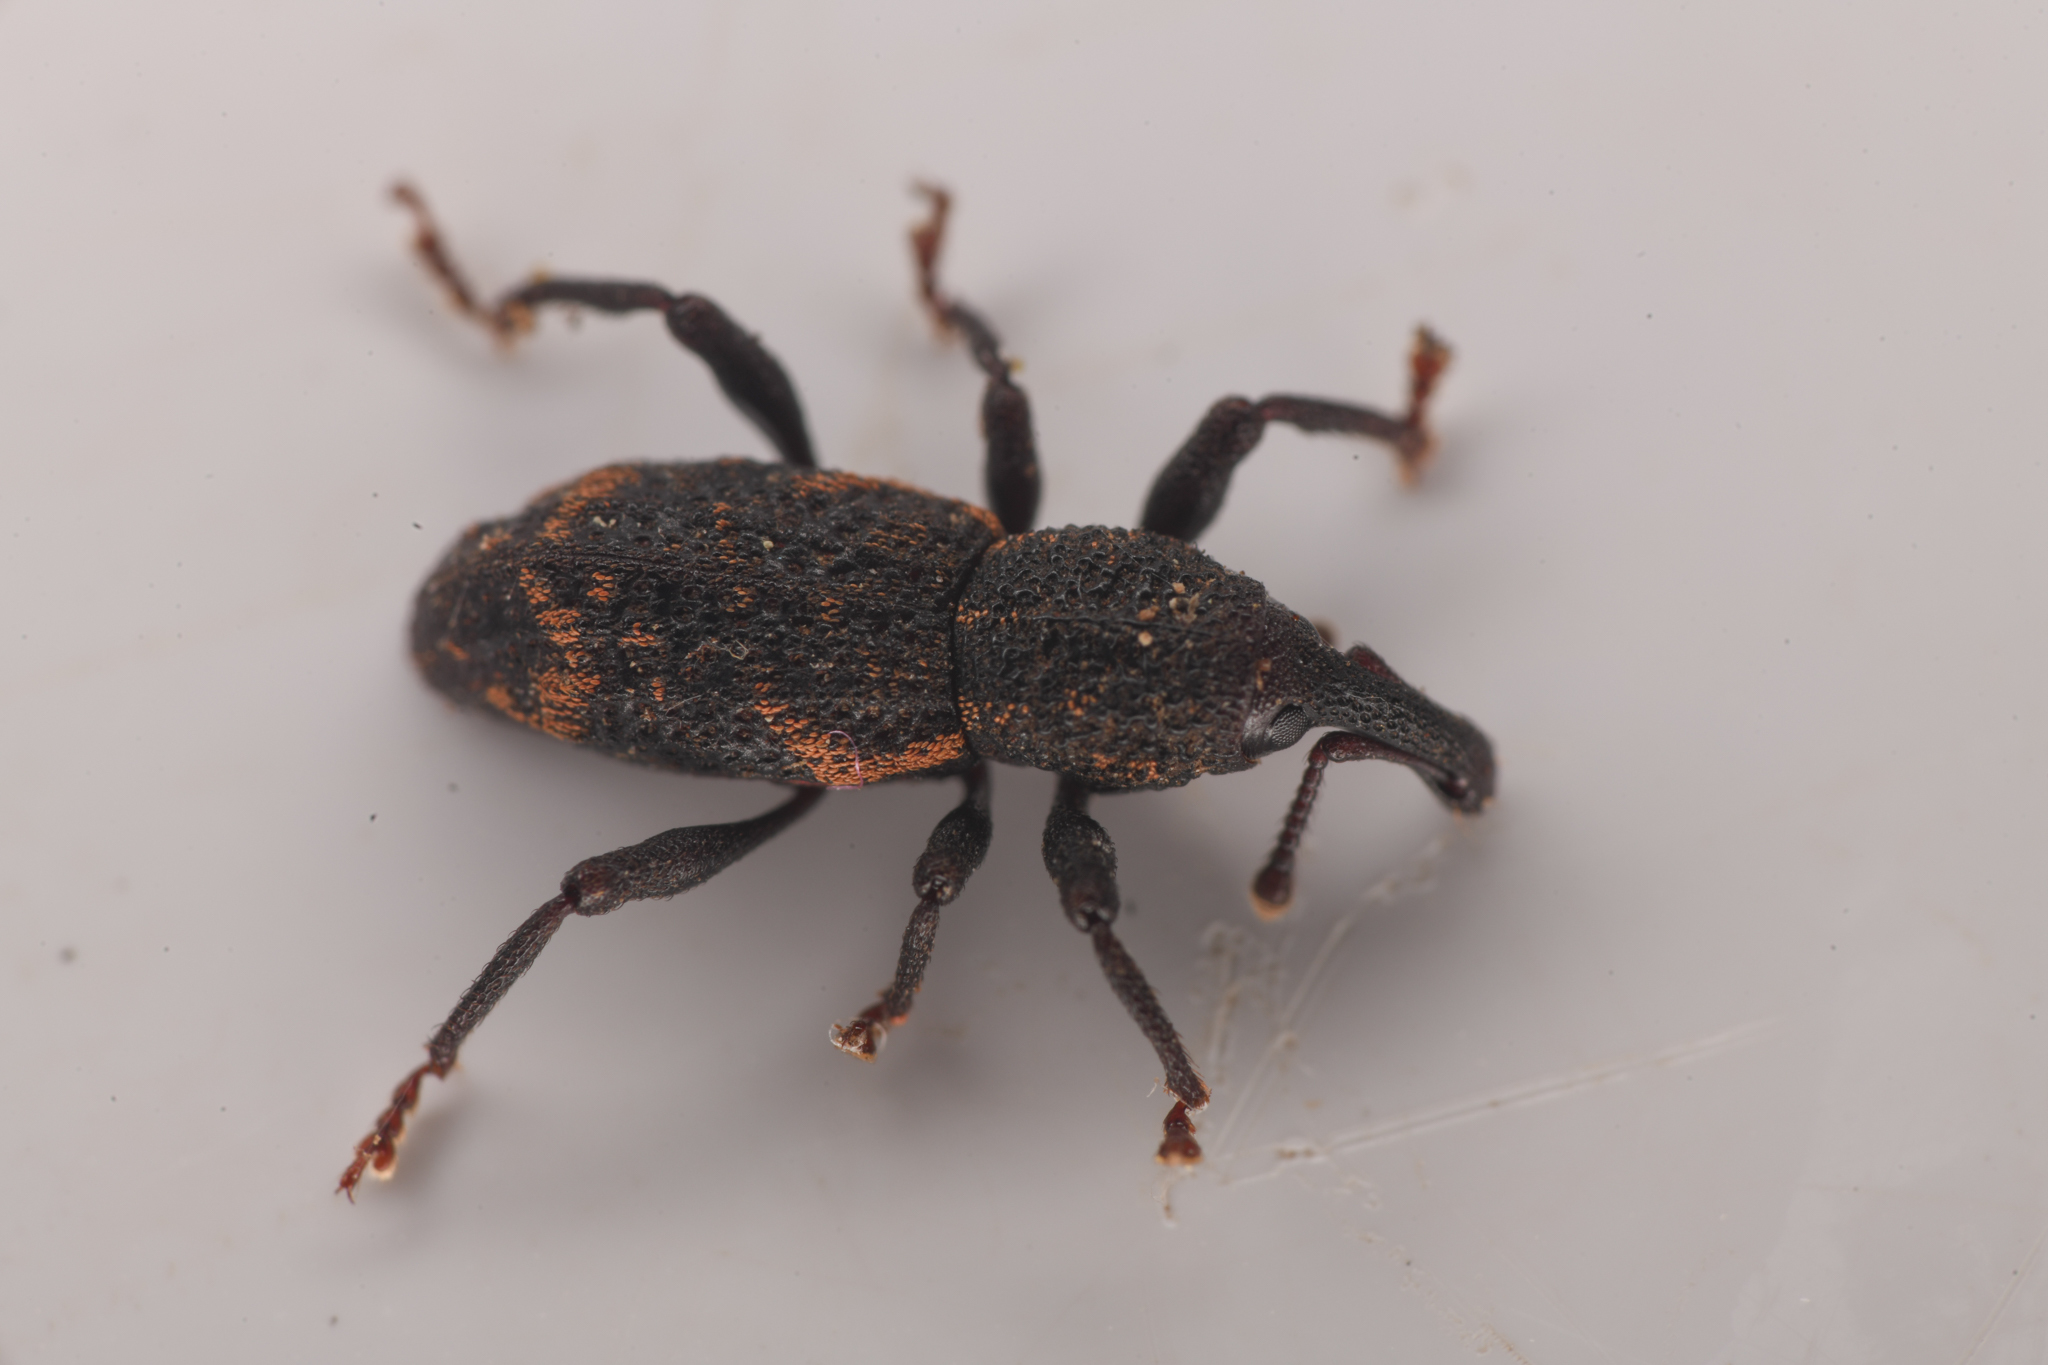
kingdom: Animalia
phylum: Arthropoda
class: Insecta
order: Coleoptera
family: Curculionidae
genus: Steremnius
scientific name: Steremnius carinatus
